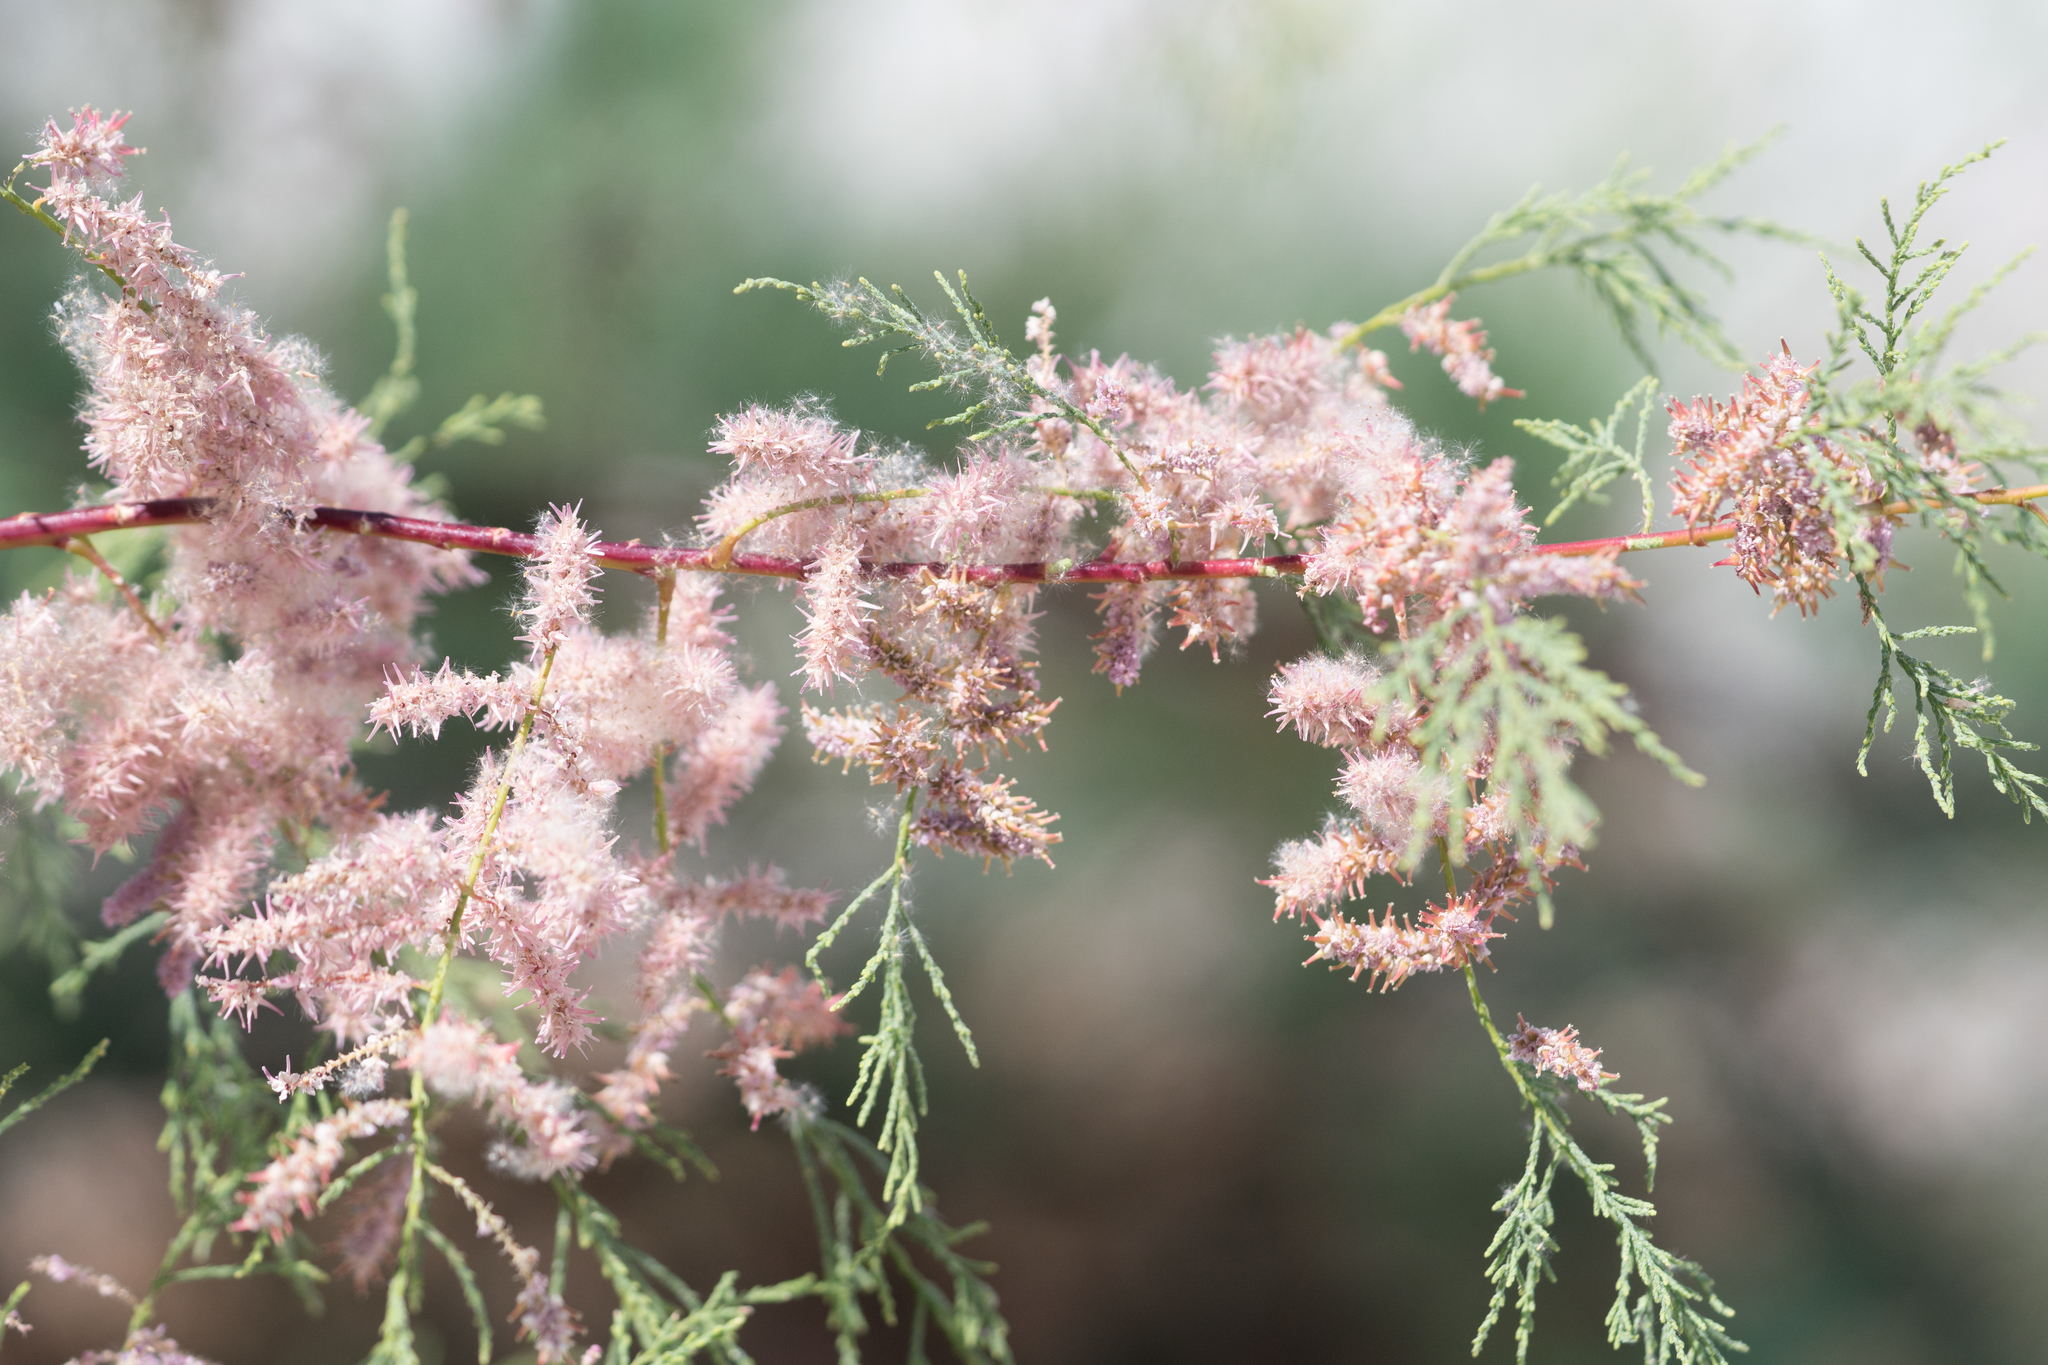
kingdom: Plantae
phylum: Tracheophyta
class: Magnoliopsida
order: Caryophyllales
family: Tamaricaceae
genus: Tamarix
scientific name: Tamarix ramosissima
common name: Pink tamarisk
